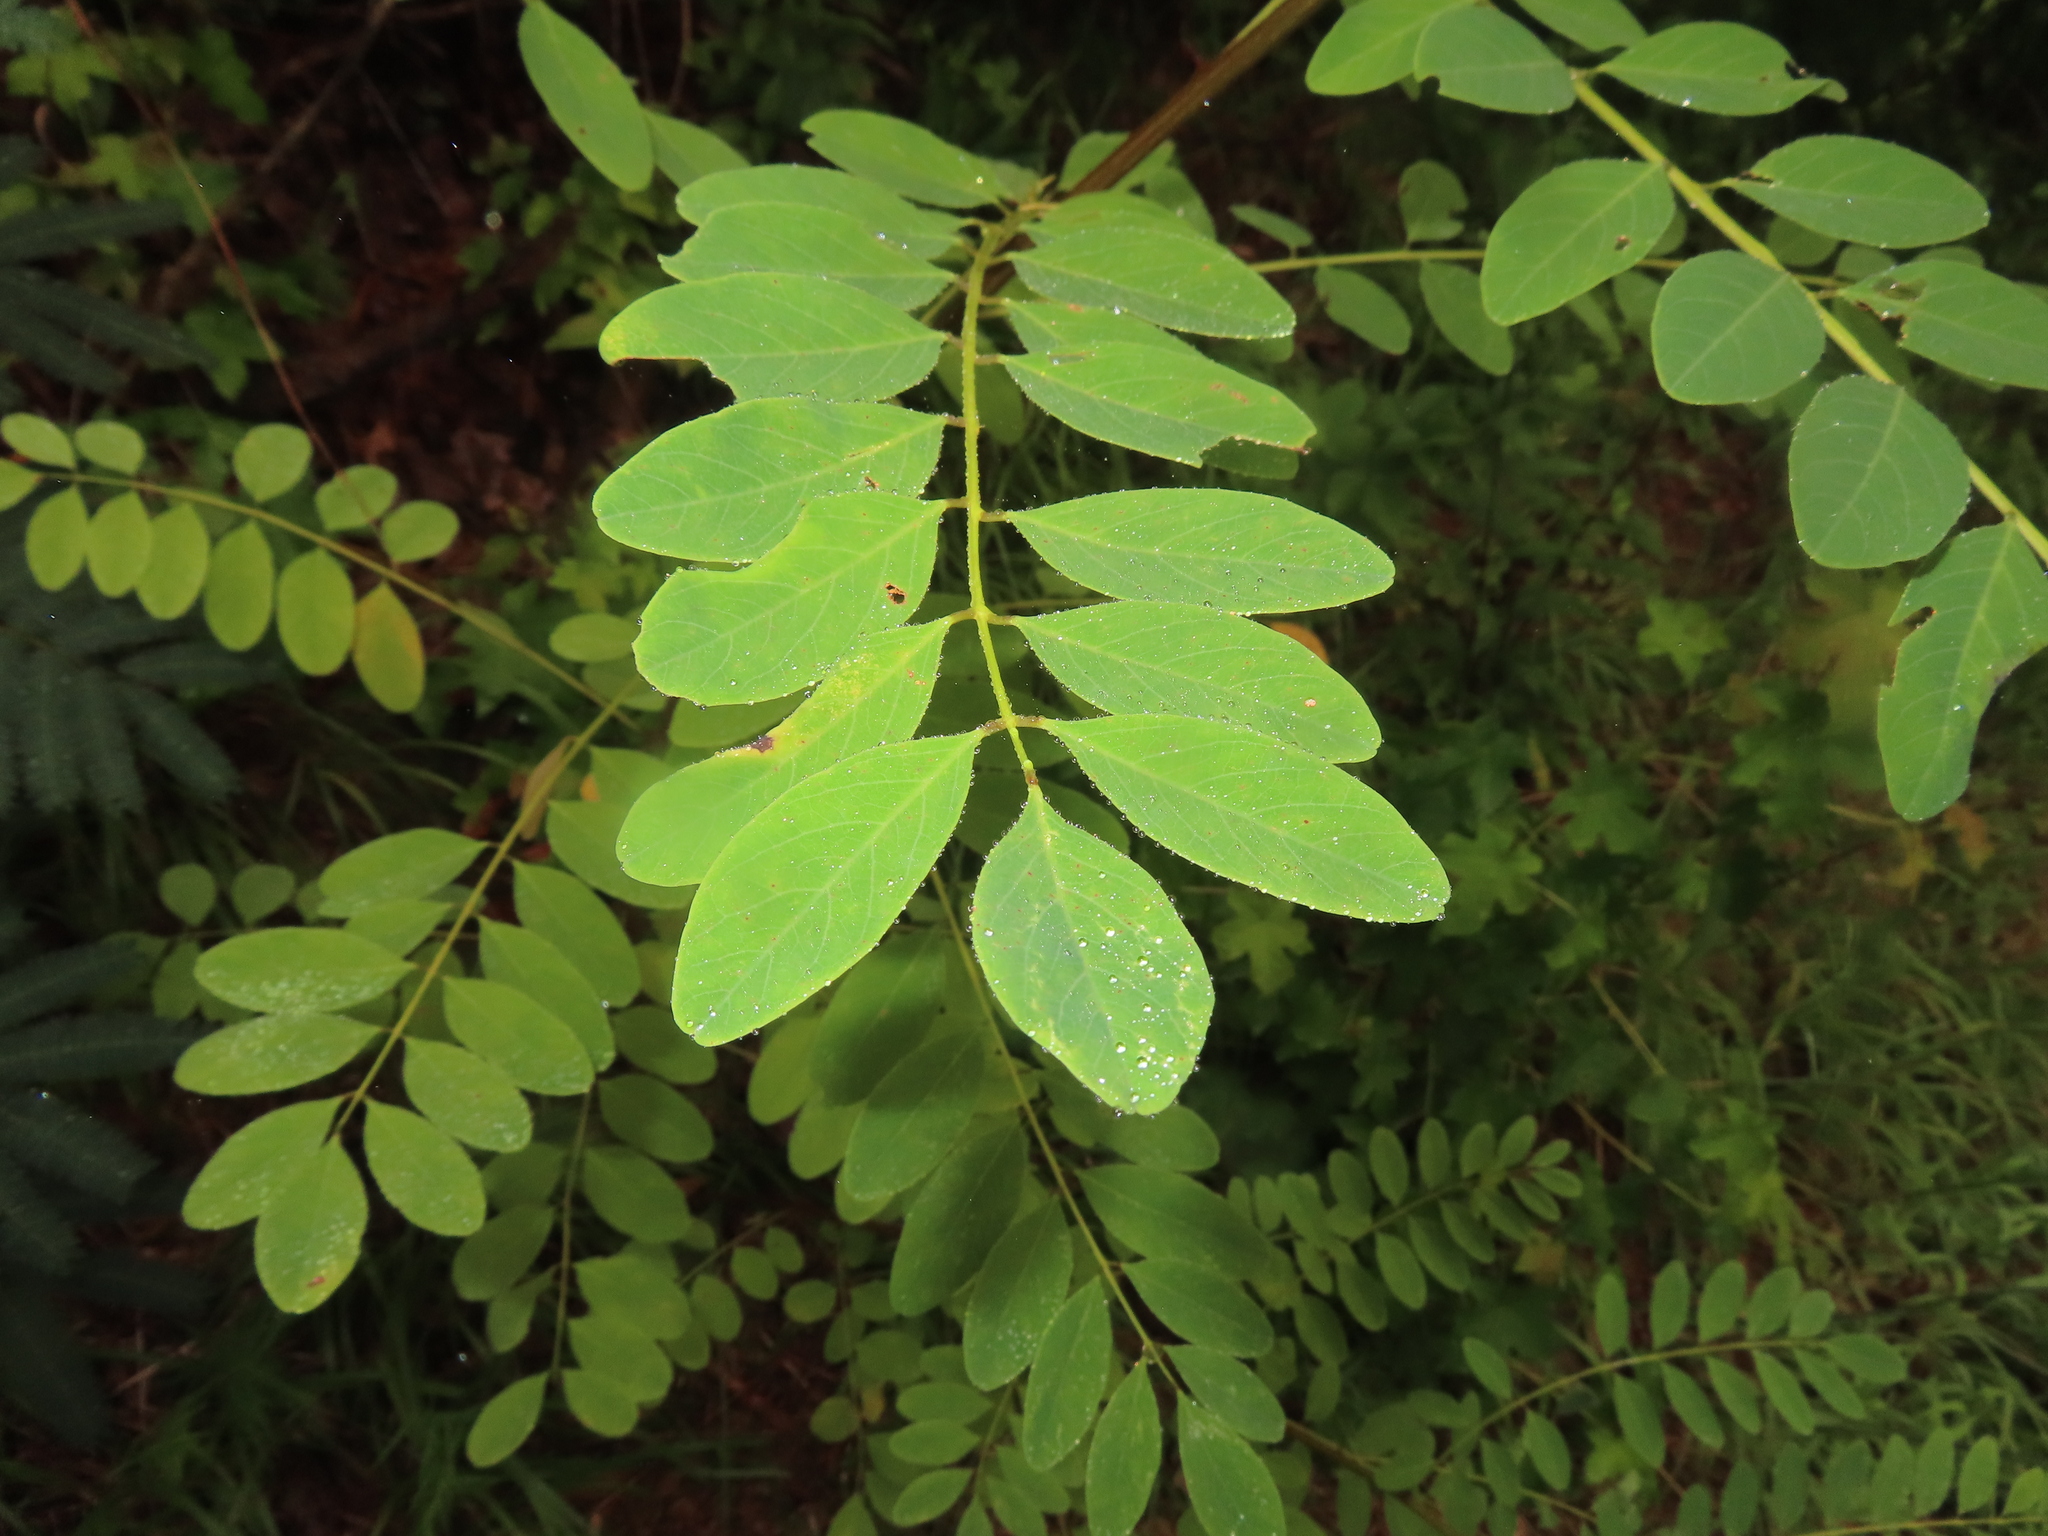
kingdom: Plantae
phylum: Tracheophyta
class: Magnoliopsida
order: Fabales
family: Fabaceae
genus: Robinia
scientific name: Robinia pseudoacacia
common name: Black locust
